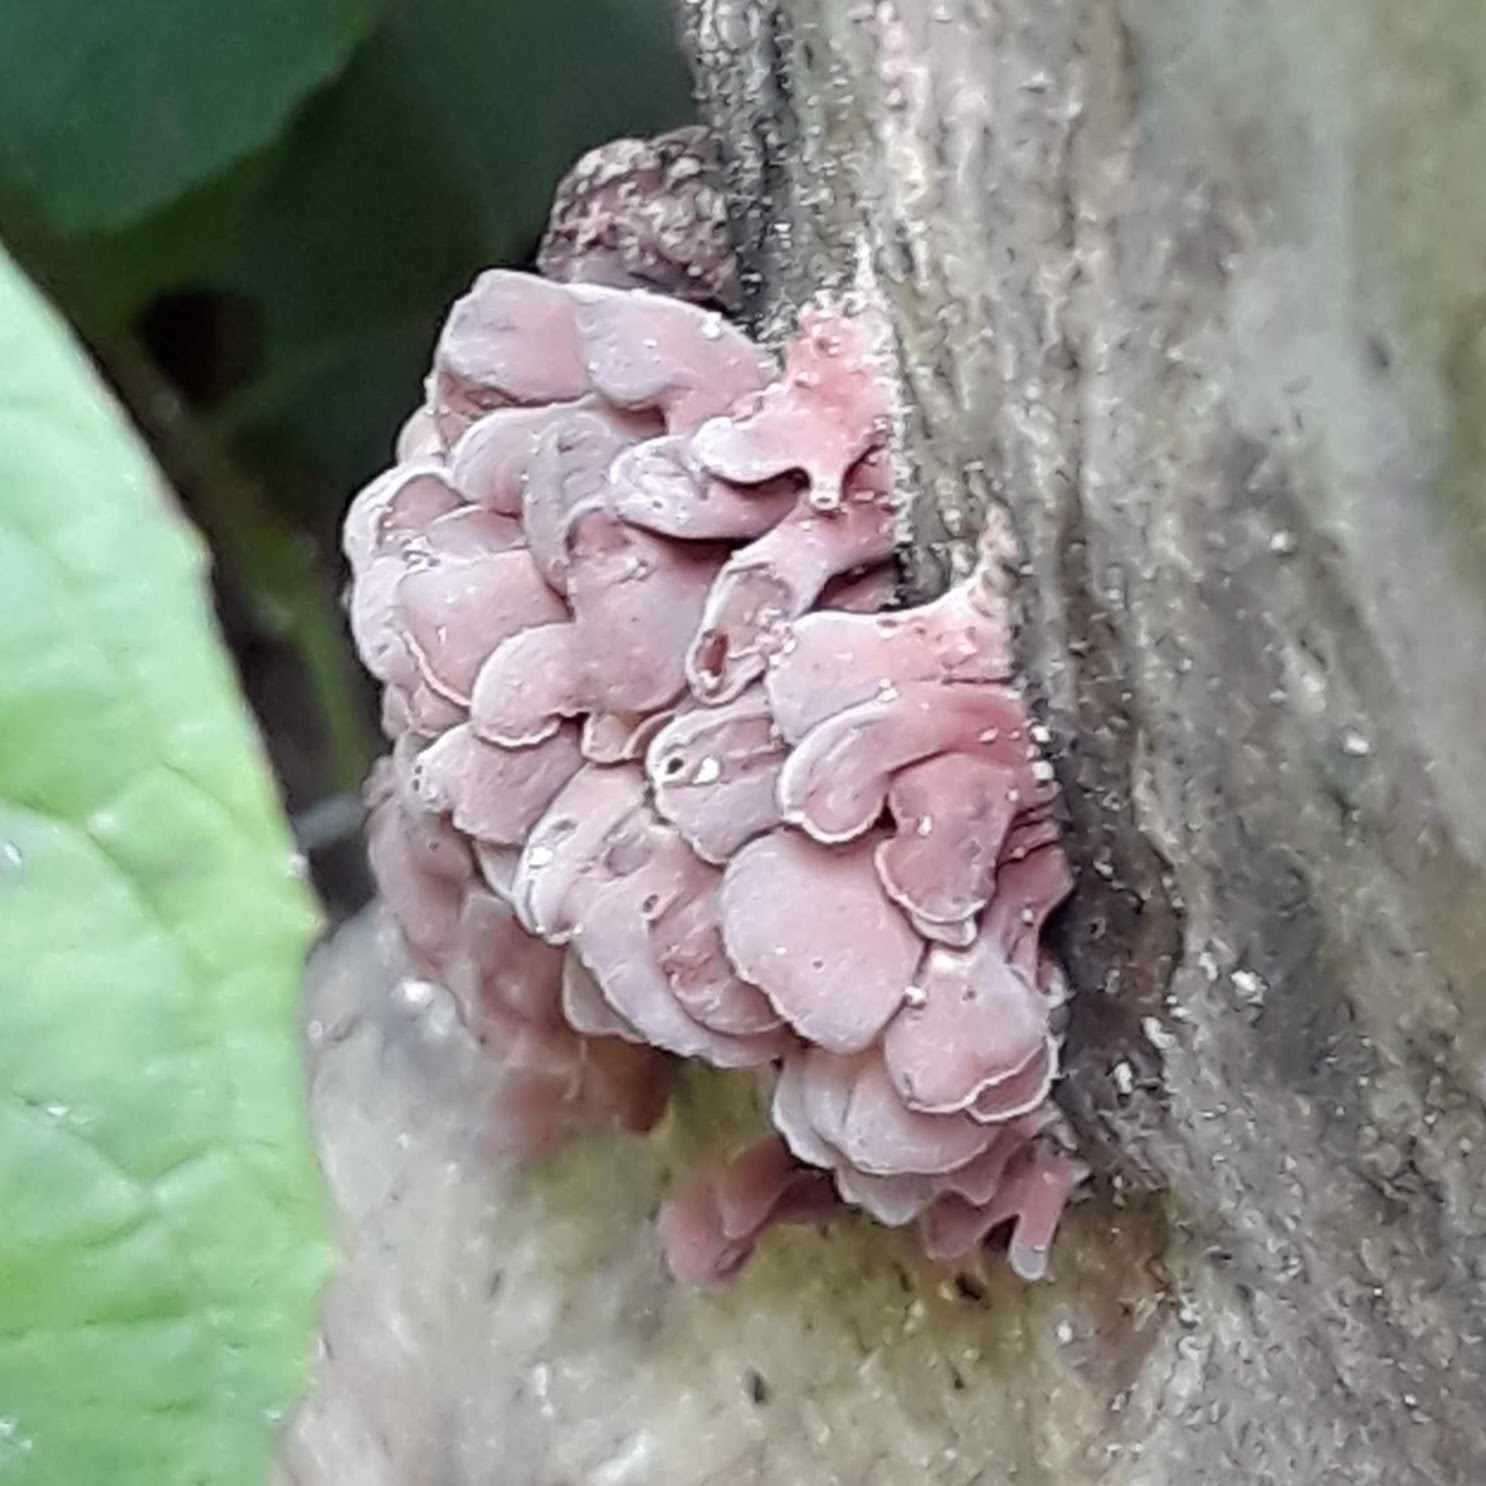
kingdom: Fungi
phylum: Basidiomycota
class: Dacrymycetes
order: Dacrymycetales
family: Dacrymycetaceae
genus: Dacryopinax
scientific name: Dacryopinax elegans
